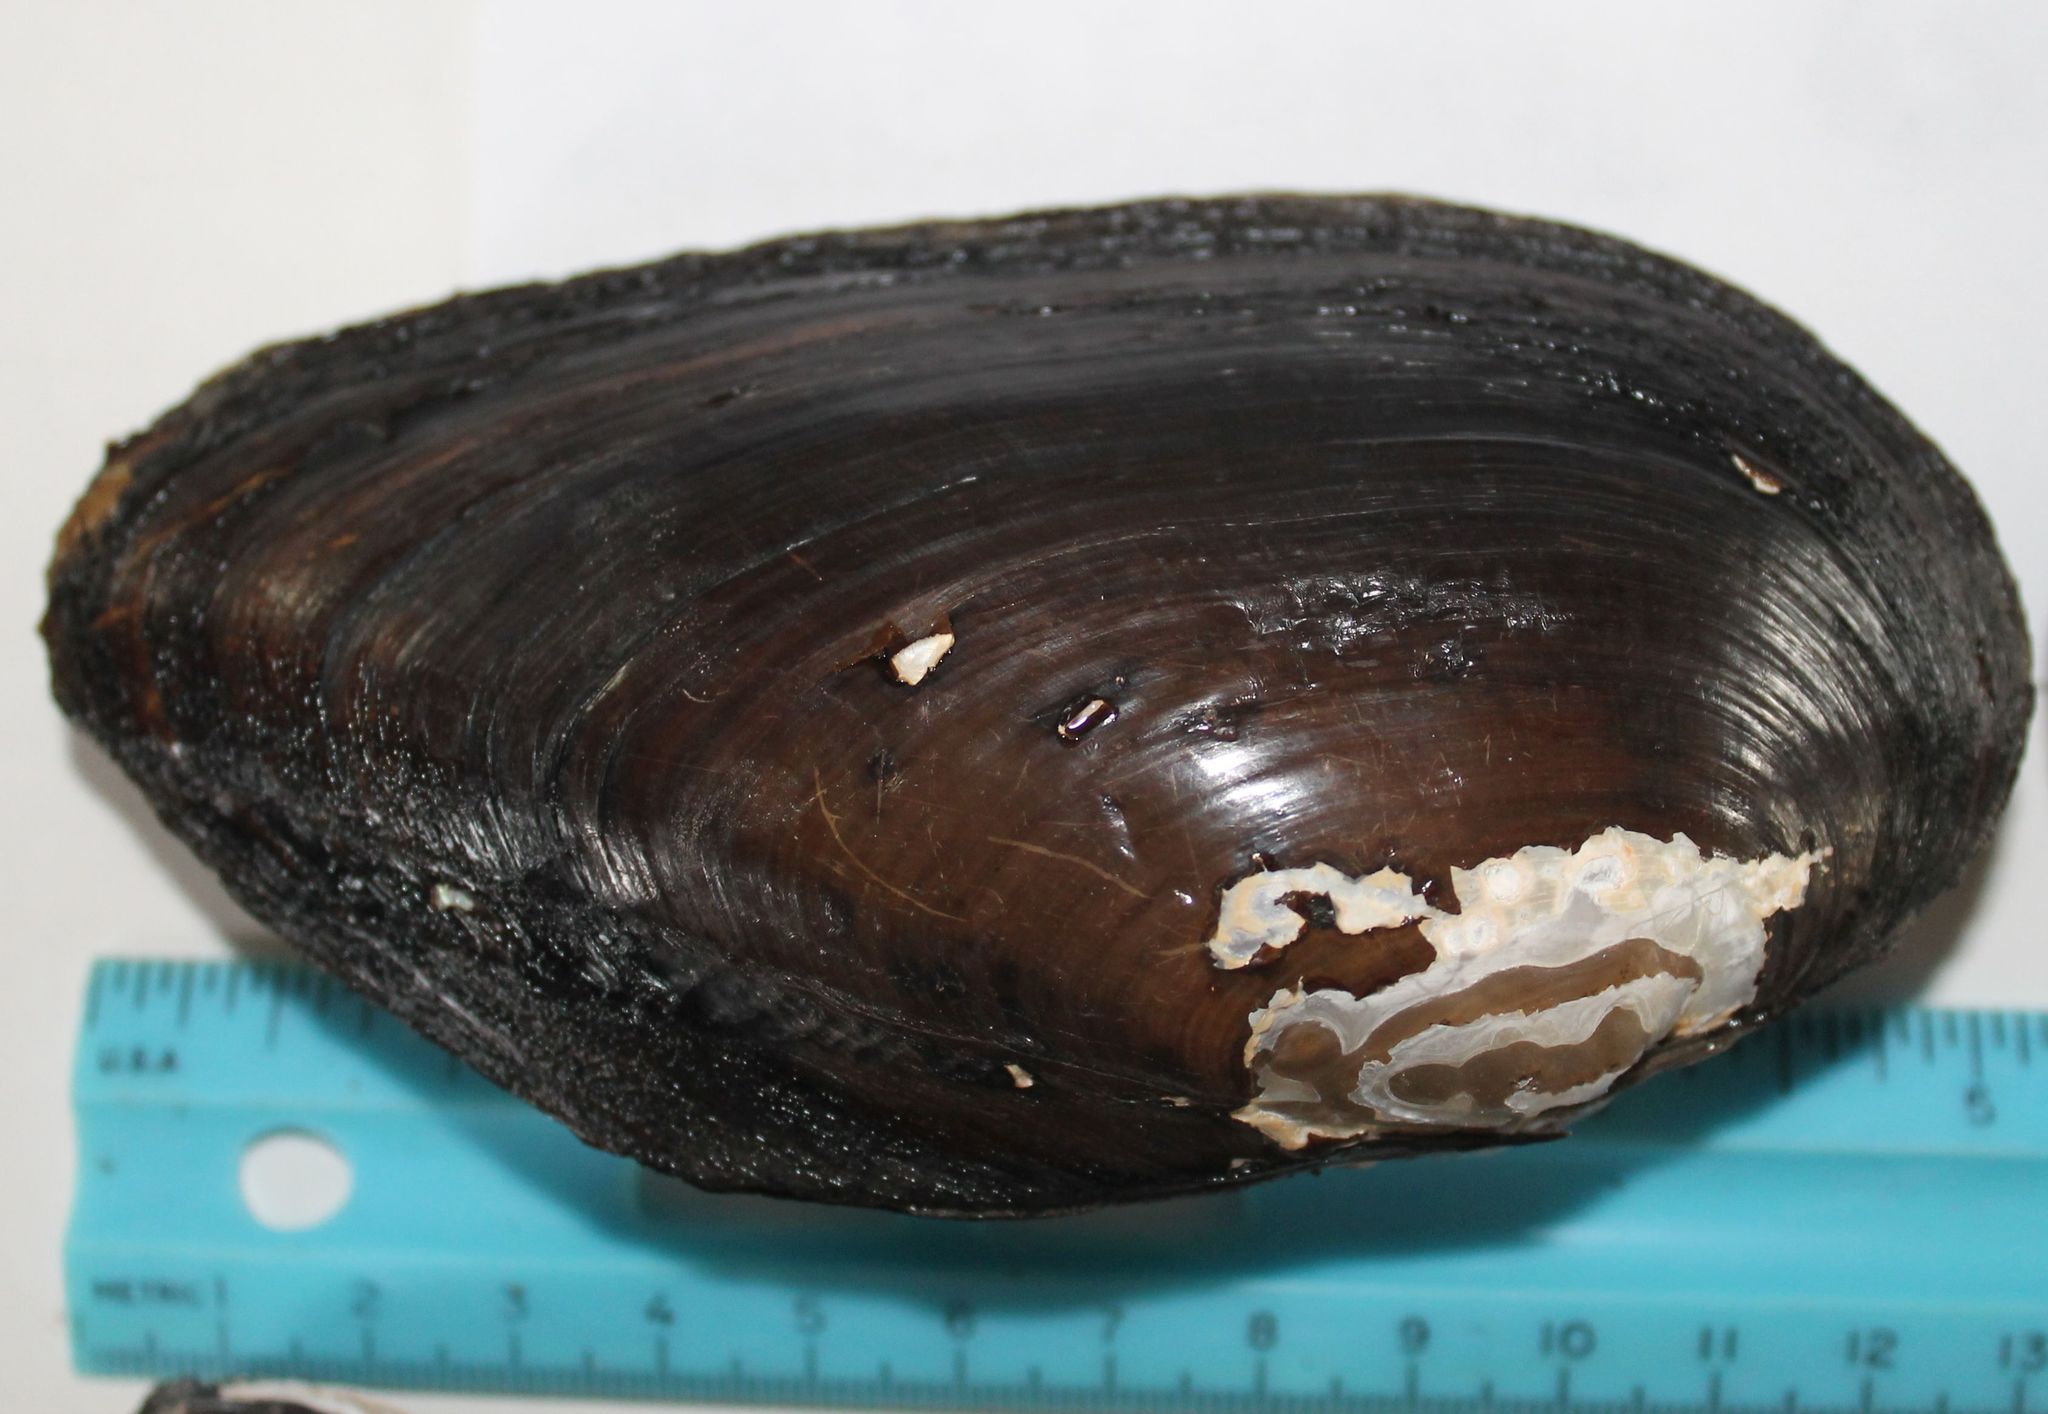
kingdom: Animalia
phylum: Mollusca
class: Bivalvia
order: Unionida
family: Unionidae
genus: Uniomerus
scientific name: Uniomerus tetralasmus
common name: Pondhorn
